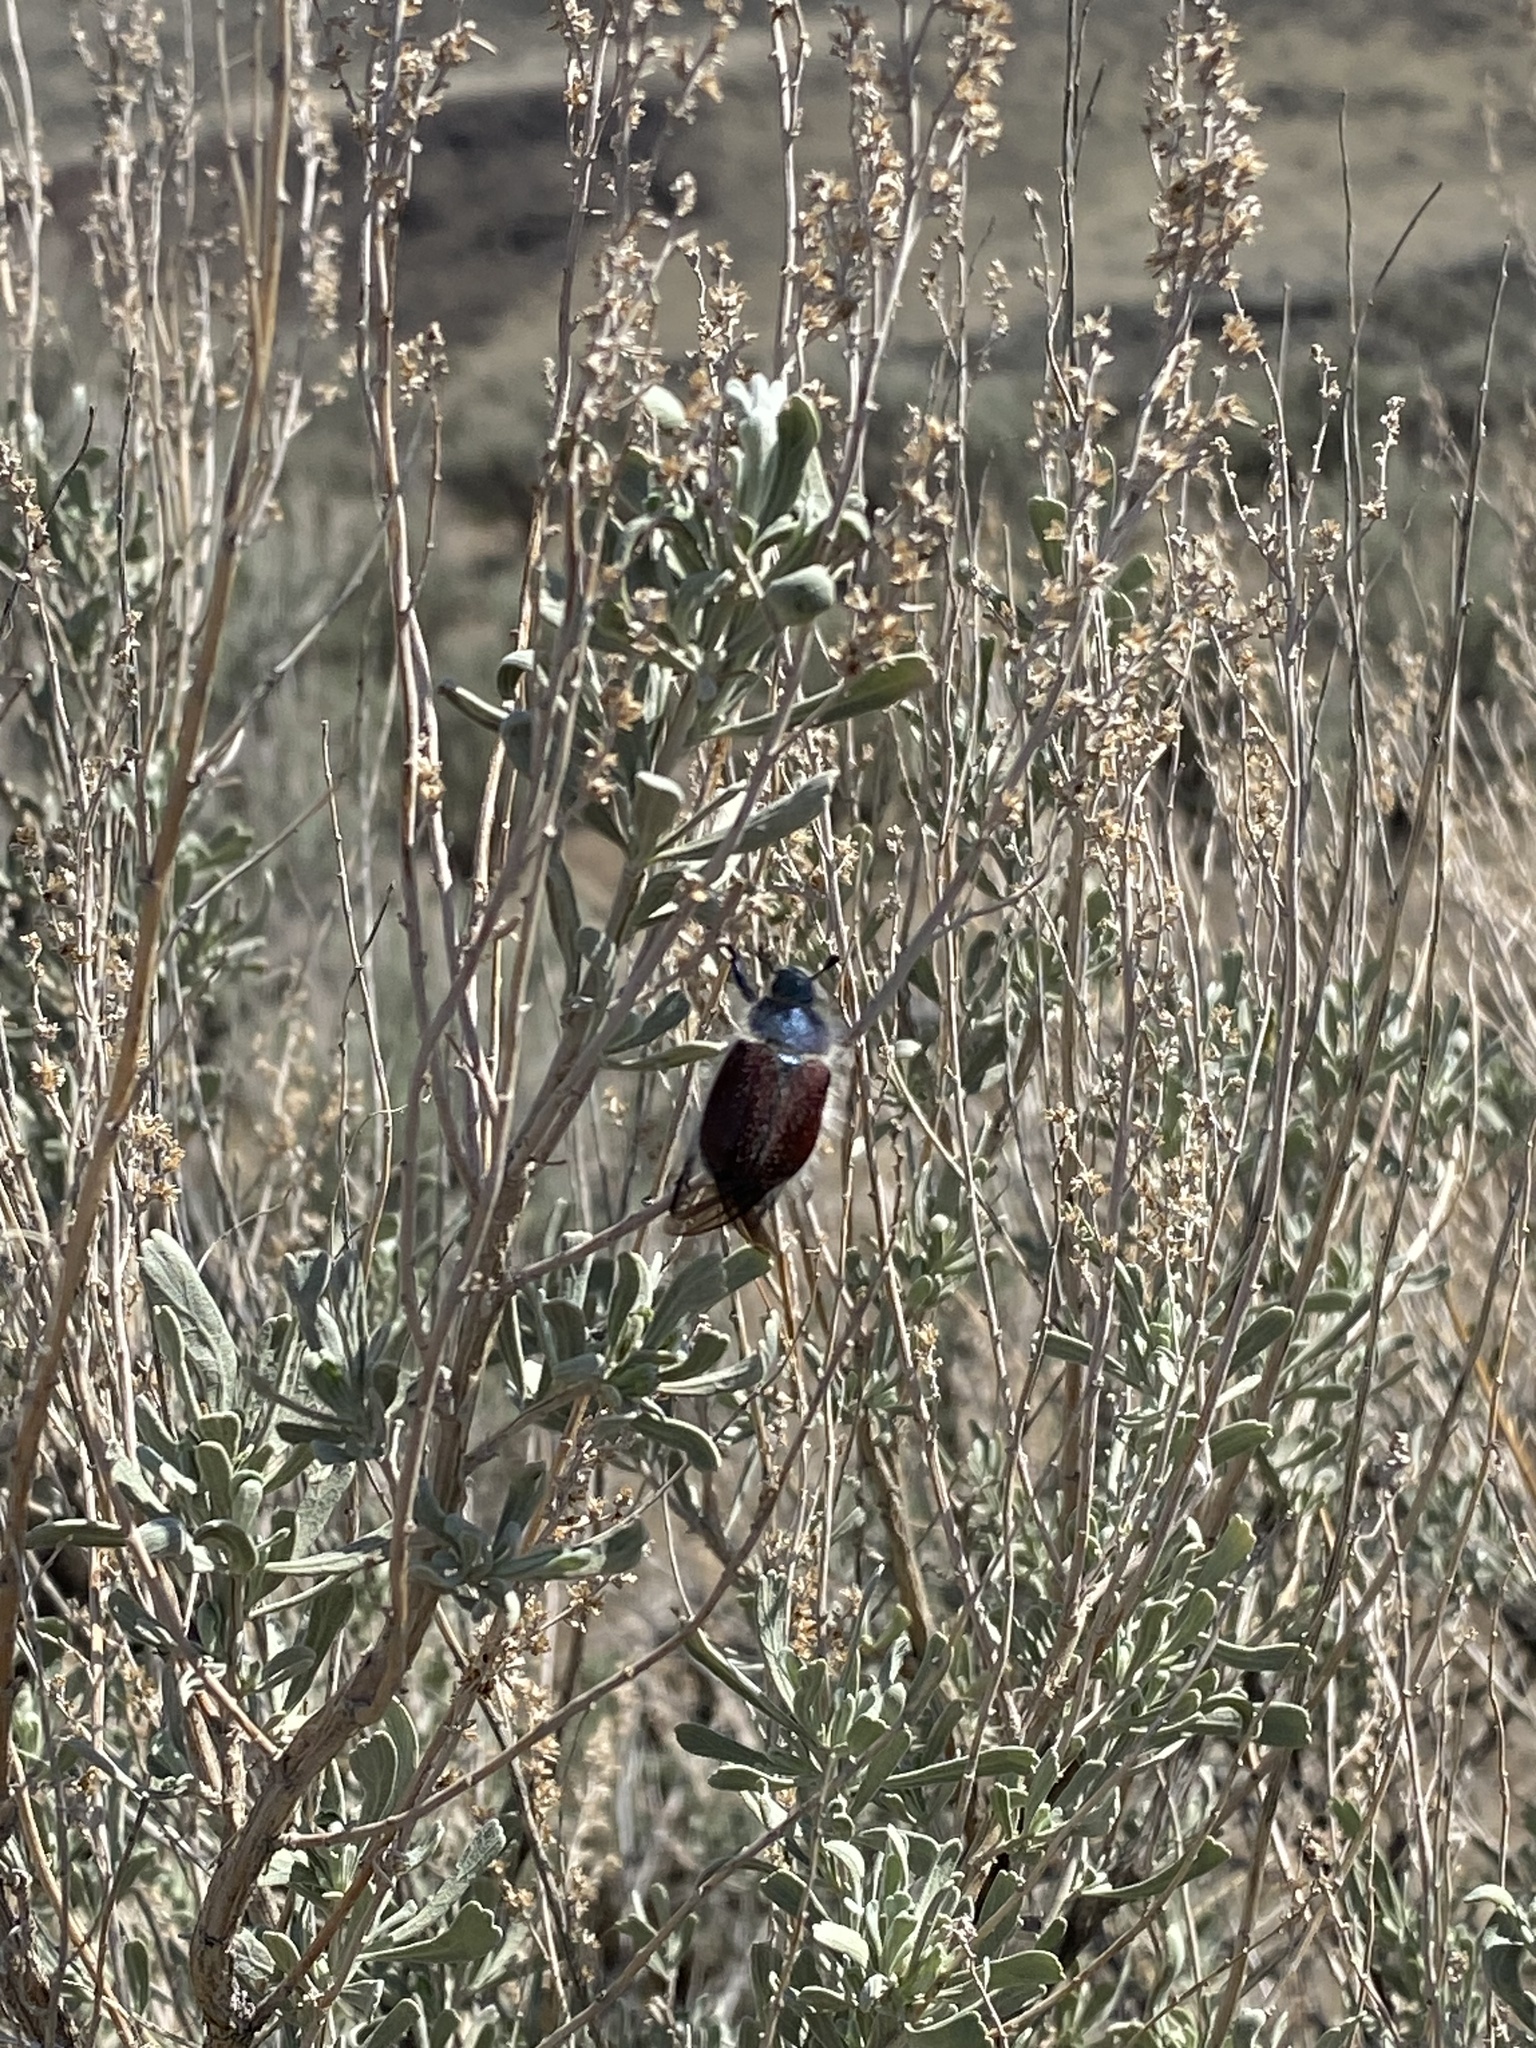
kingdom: Animalia
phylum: Arthropoda
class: Insecta
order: Coleoptera
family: Scarabaeidae
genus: Paracotalpa
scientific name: Paracotalpa granicollis
